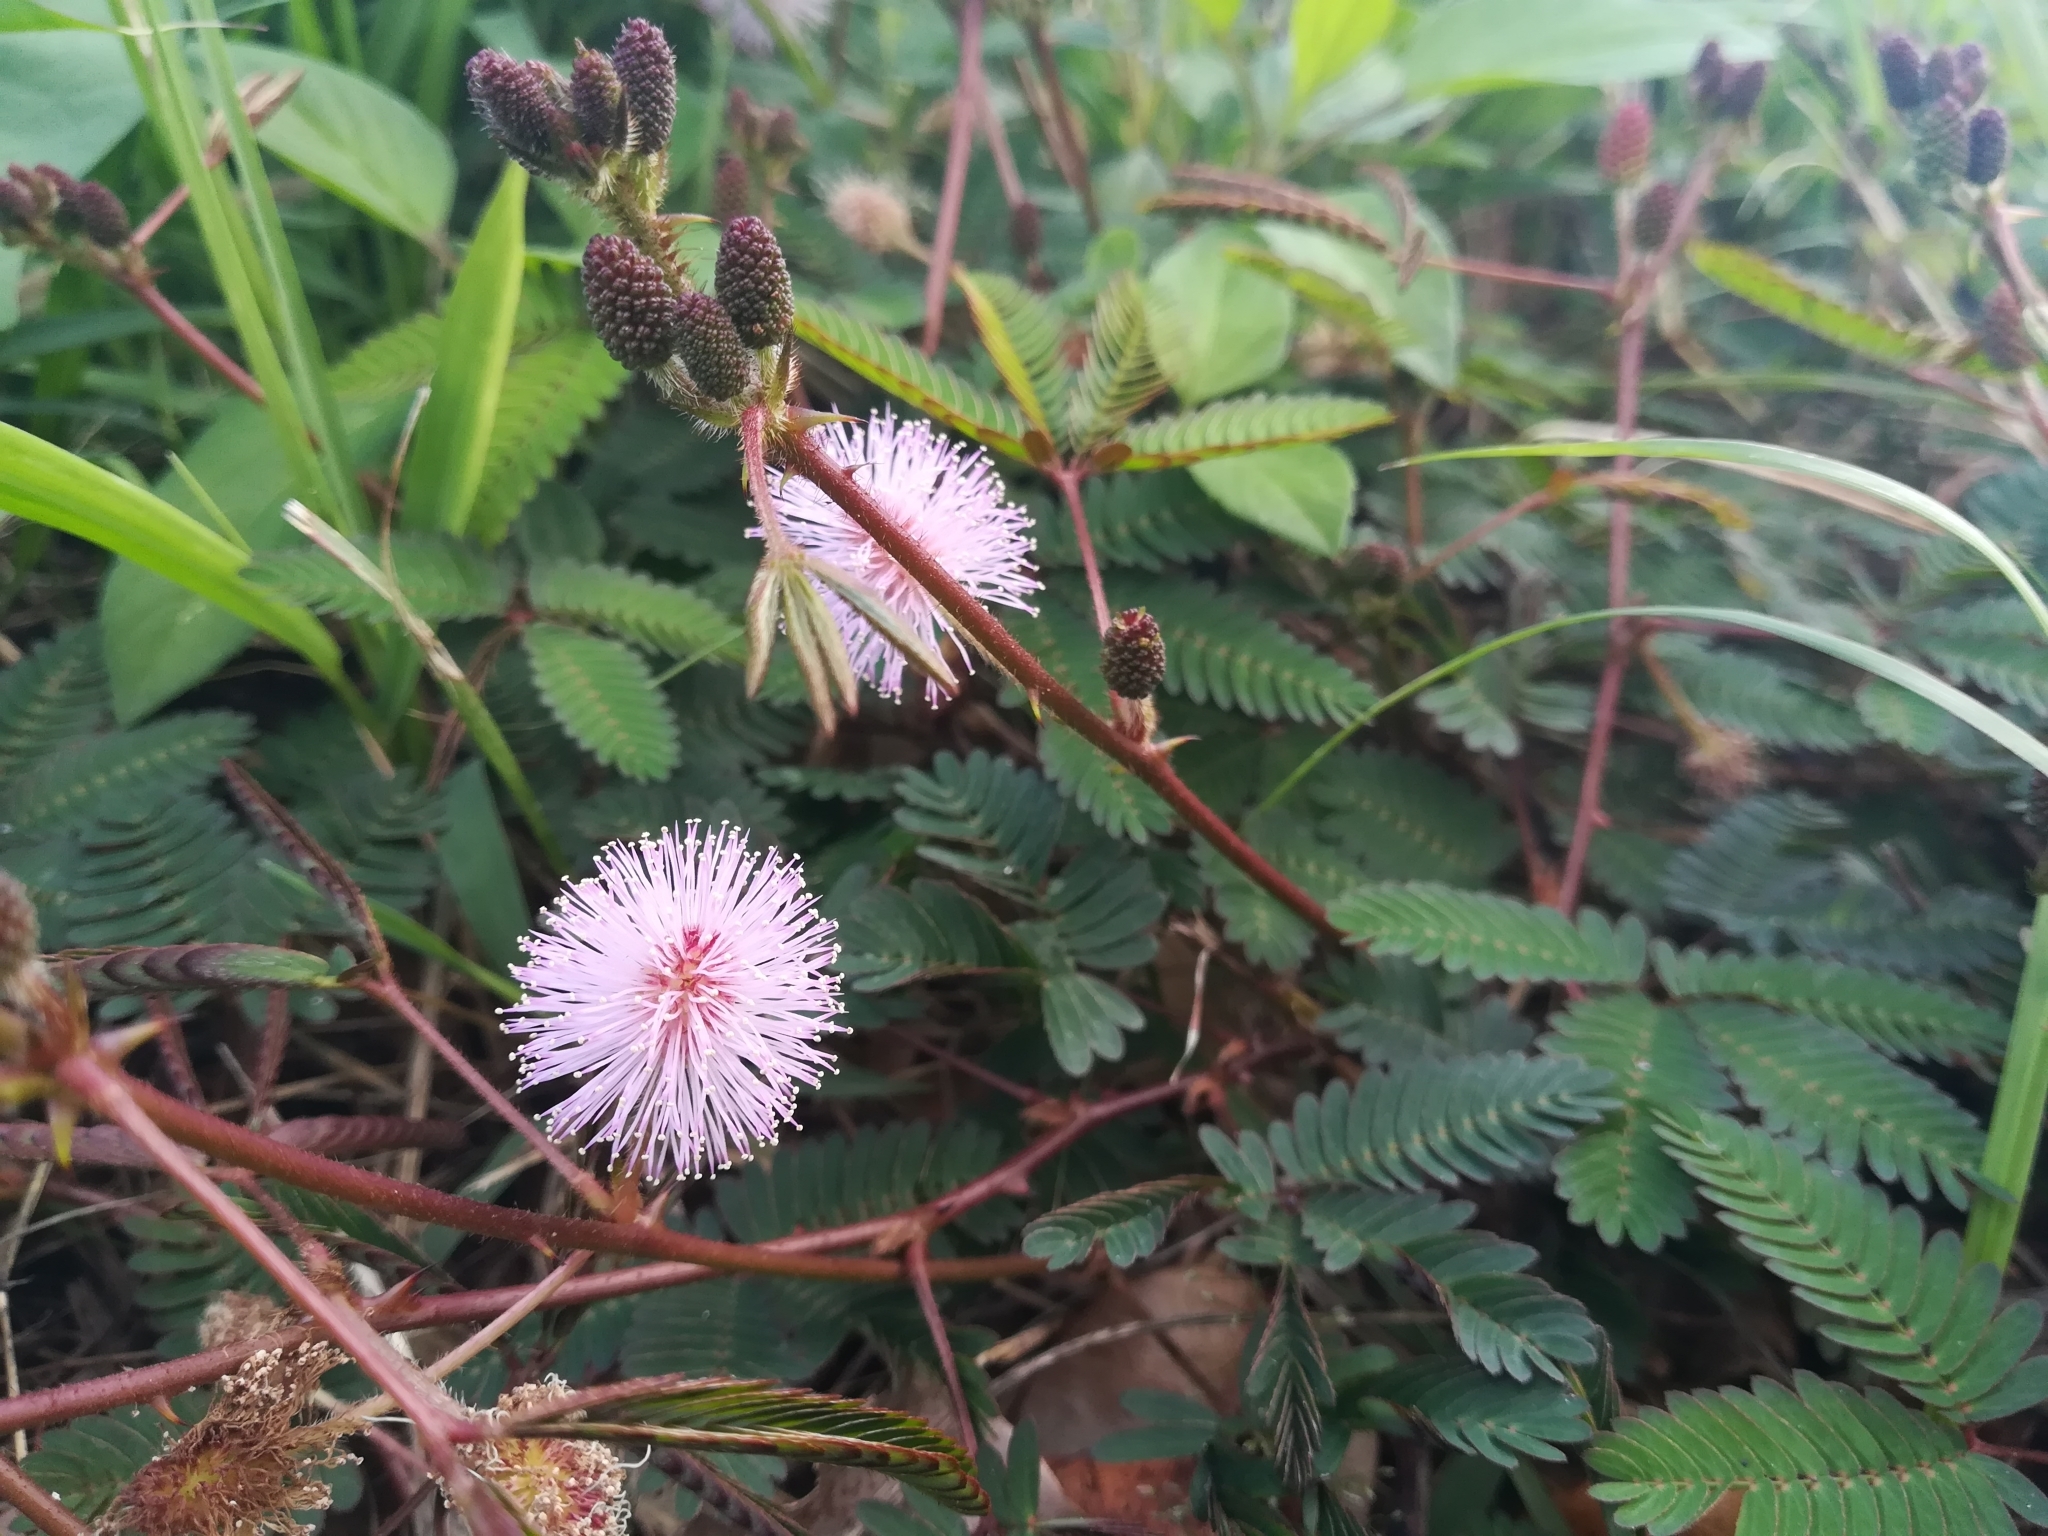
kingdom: Plantae
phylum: Tracheophyta
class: Magnoliopsida
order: Fabales
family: Fabaceae
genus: Mimosa
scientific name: Mimosa pudica
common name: Sensitive plant
